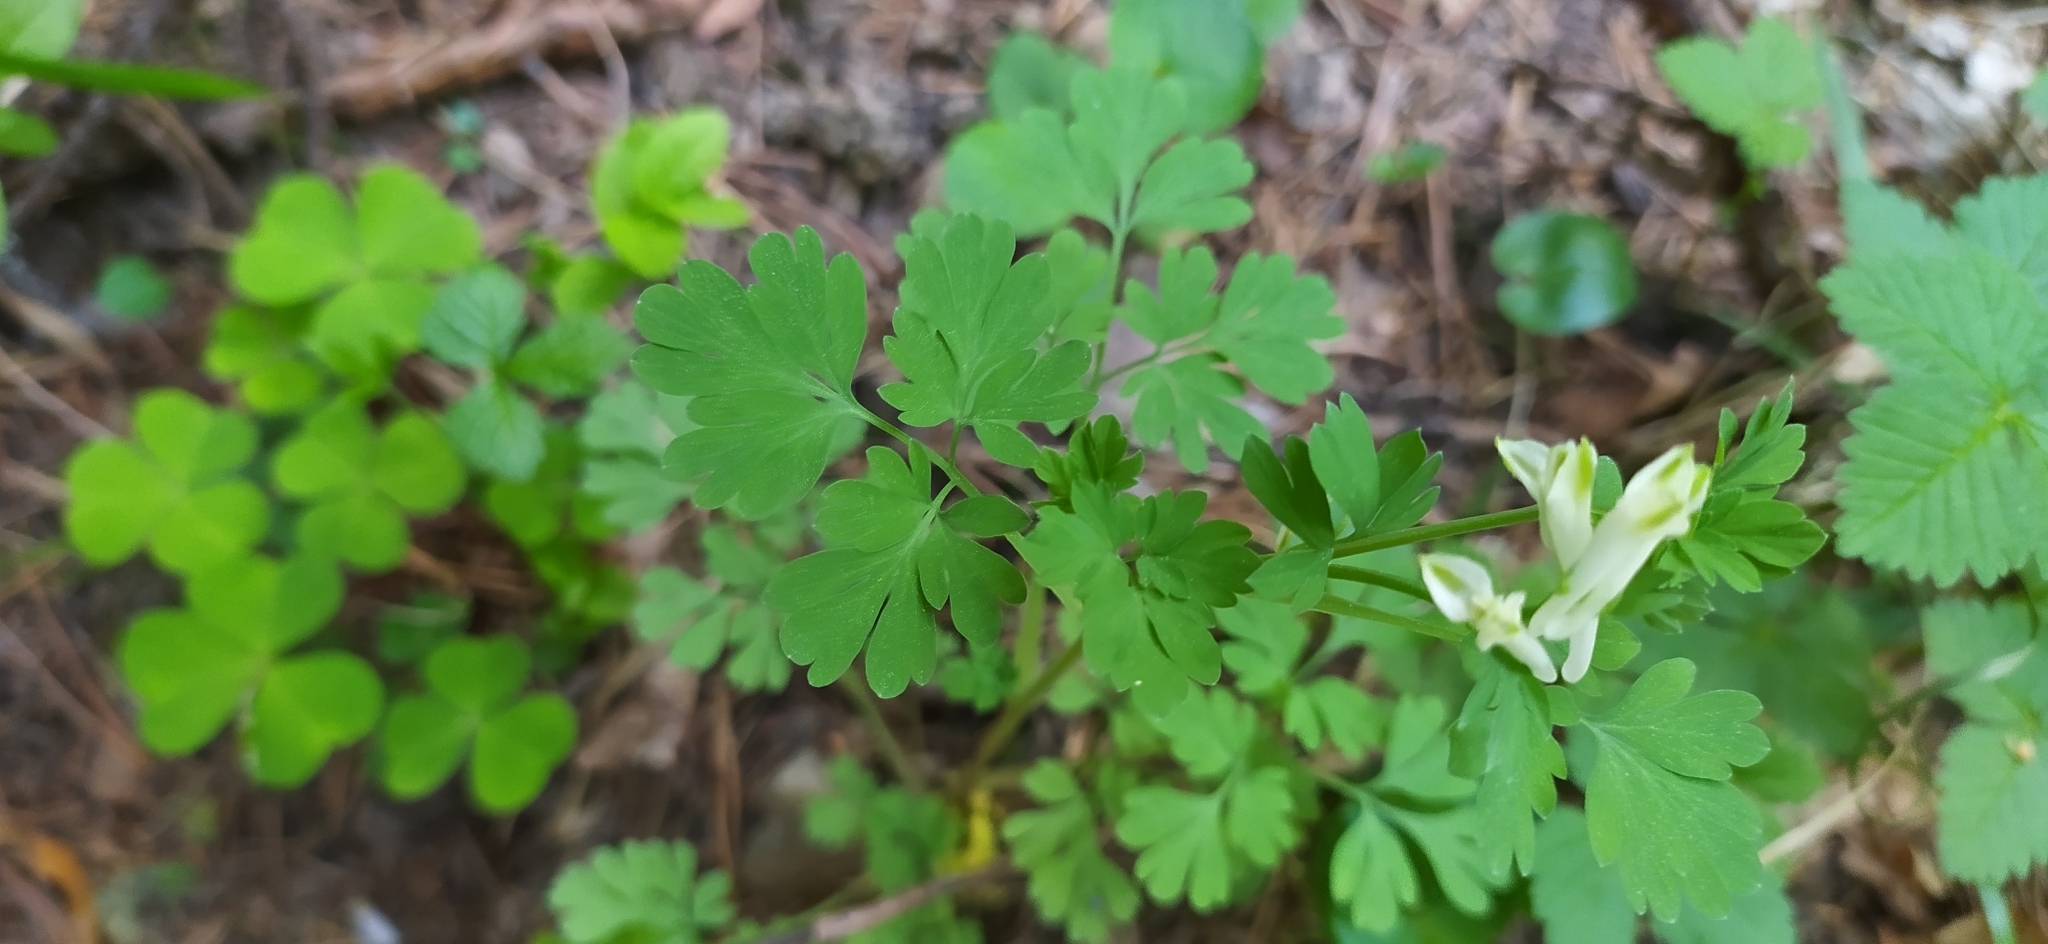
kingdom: Plantae
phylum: Tracheophyta
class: Magnoliopsida
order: Ranunculales
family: Papaveraceae
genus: Corydalis
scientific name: Corydalis capnoides
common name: Beaked corydalis
